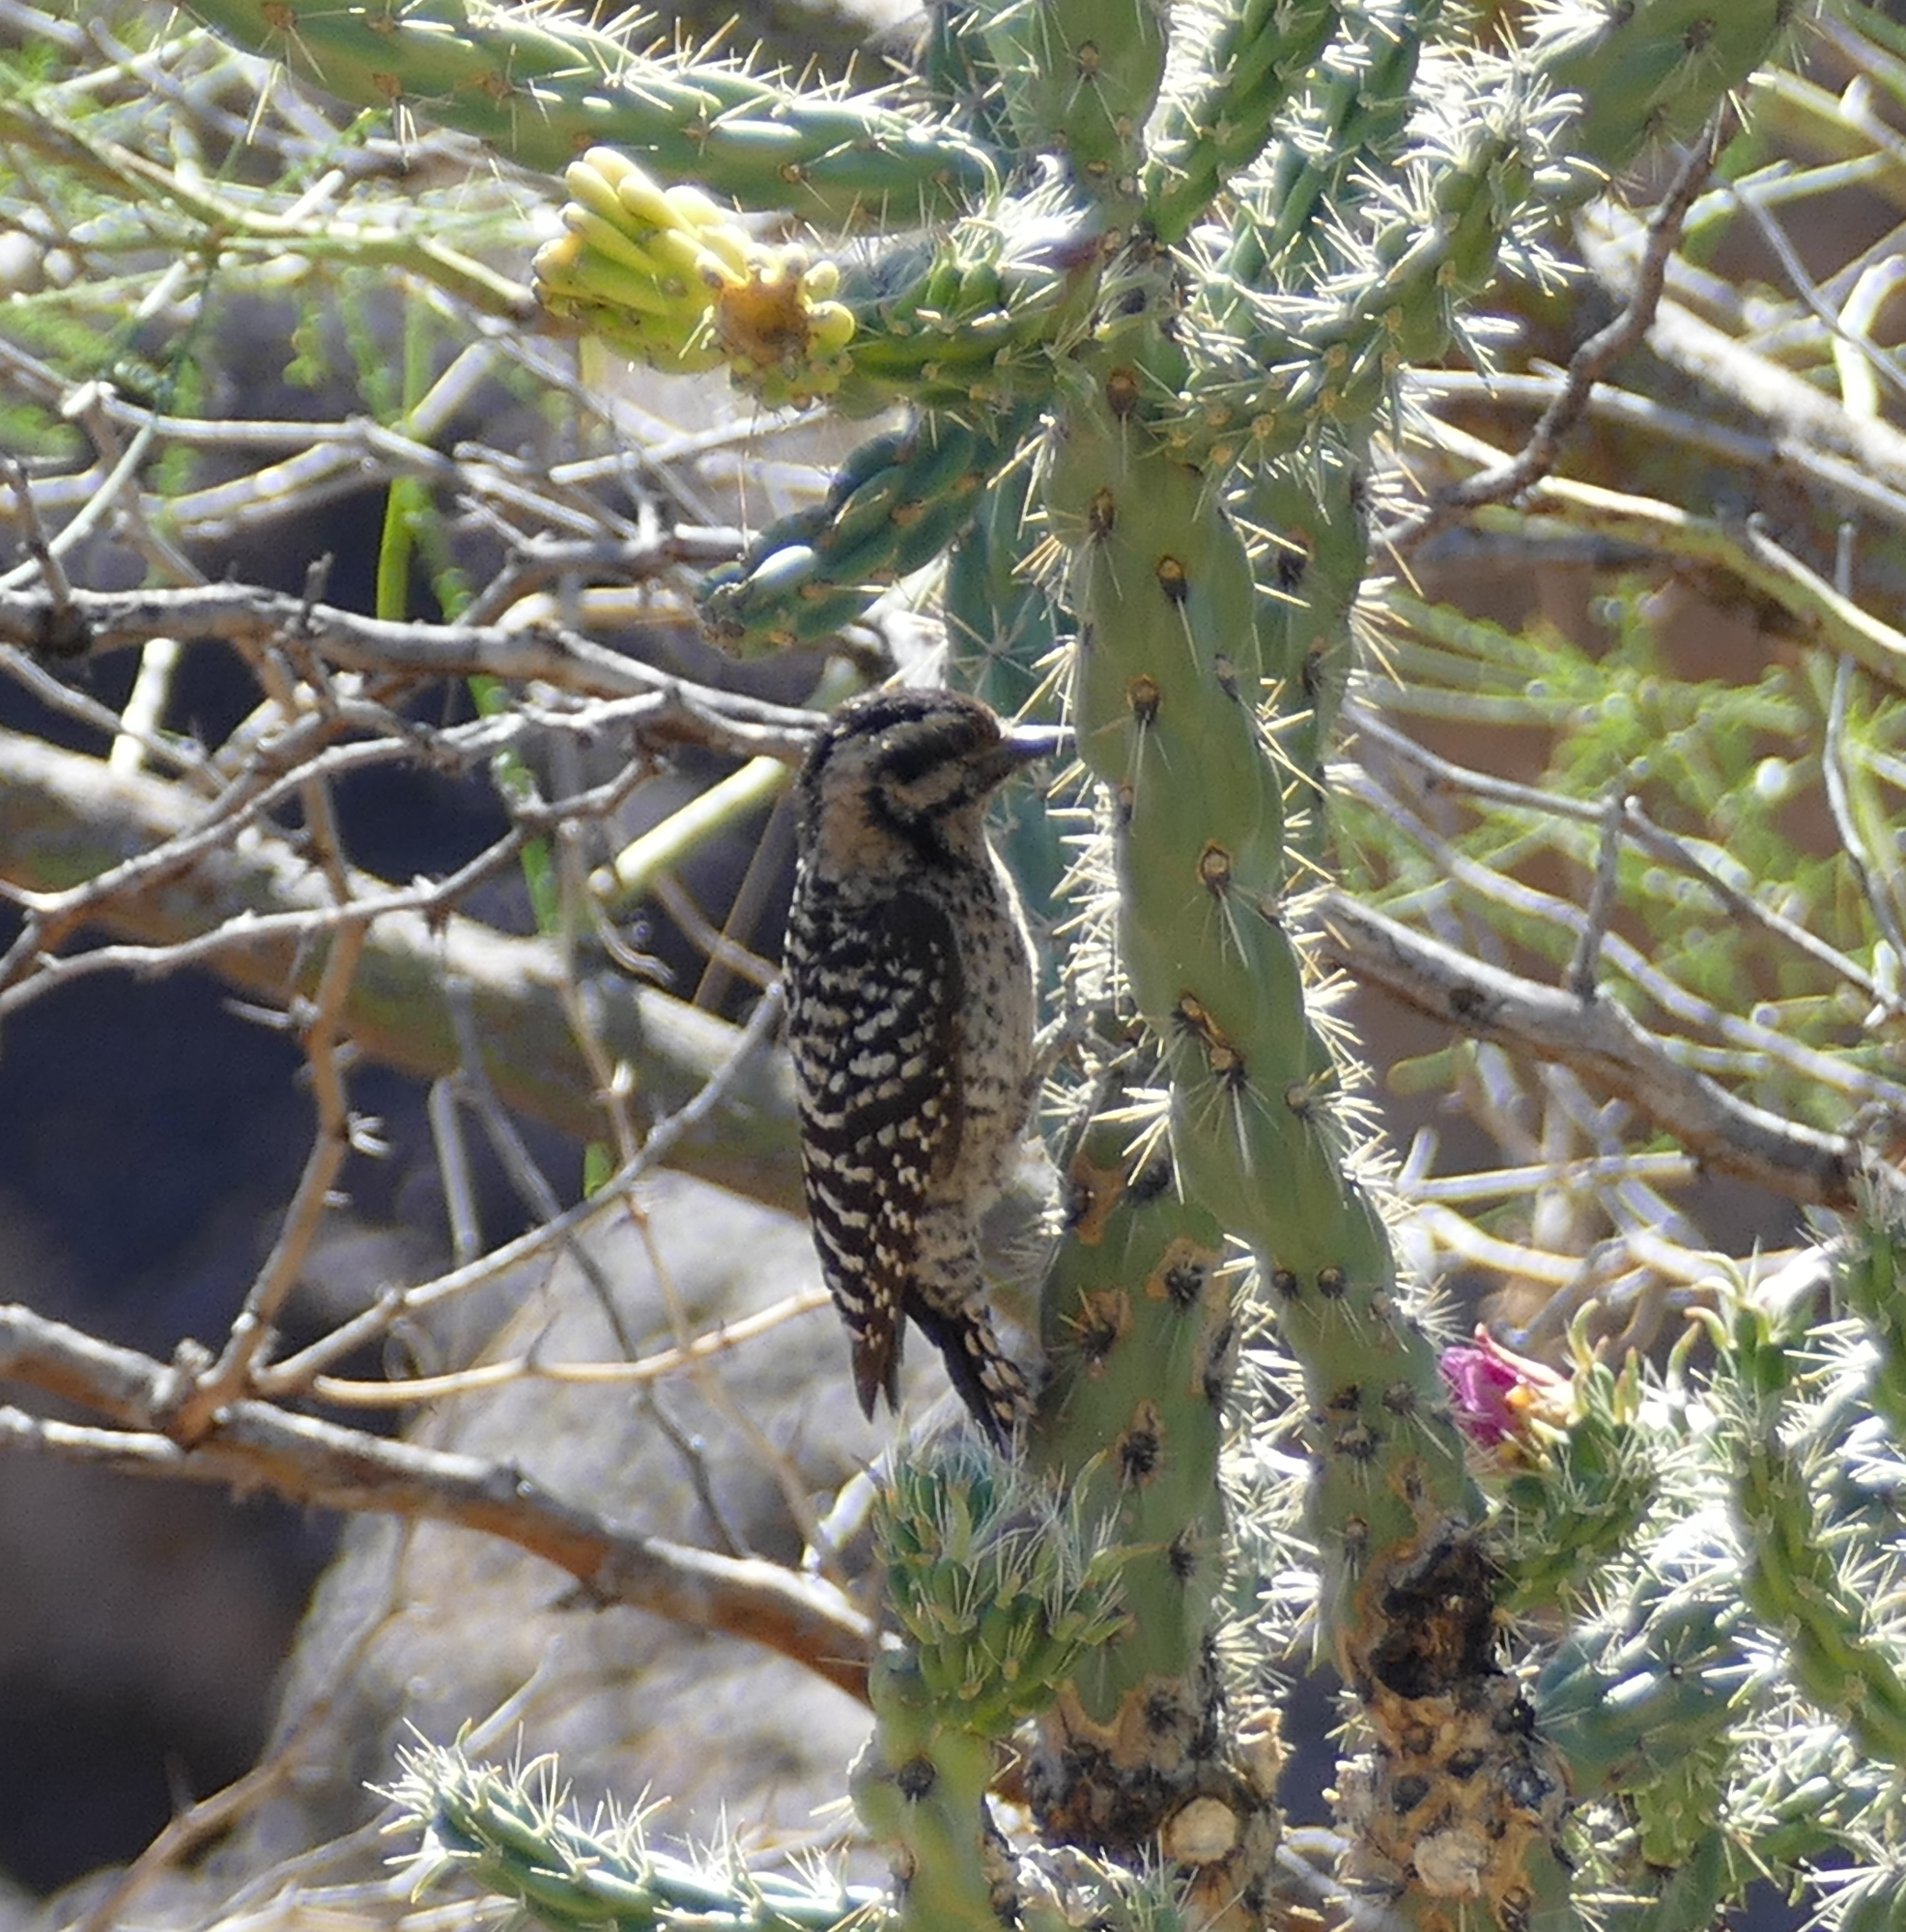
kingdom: Animalia
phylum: Chordata
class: Aves
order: Piciformes
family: Picidae
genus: Dryobates
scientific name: Dryobates scalaris
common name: Ladder-backed woodpecker
